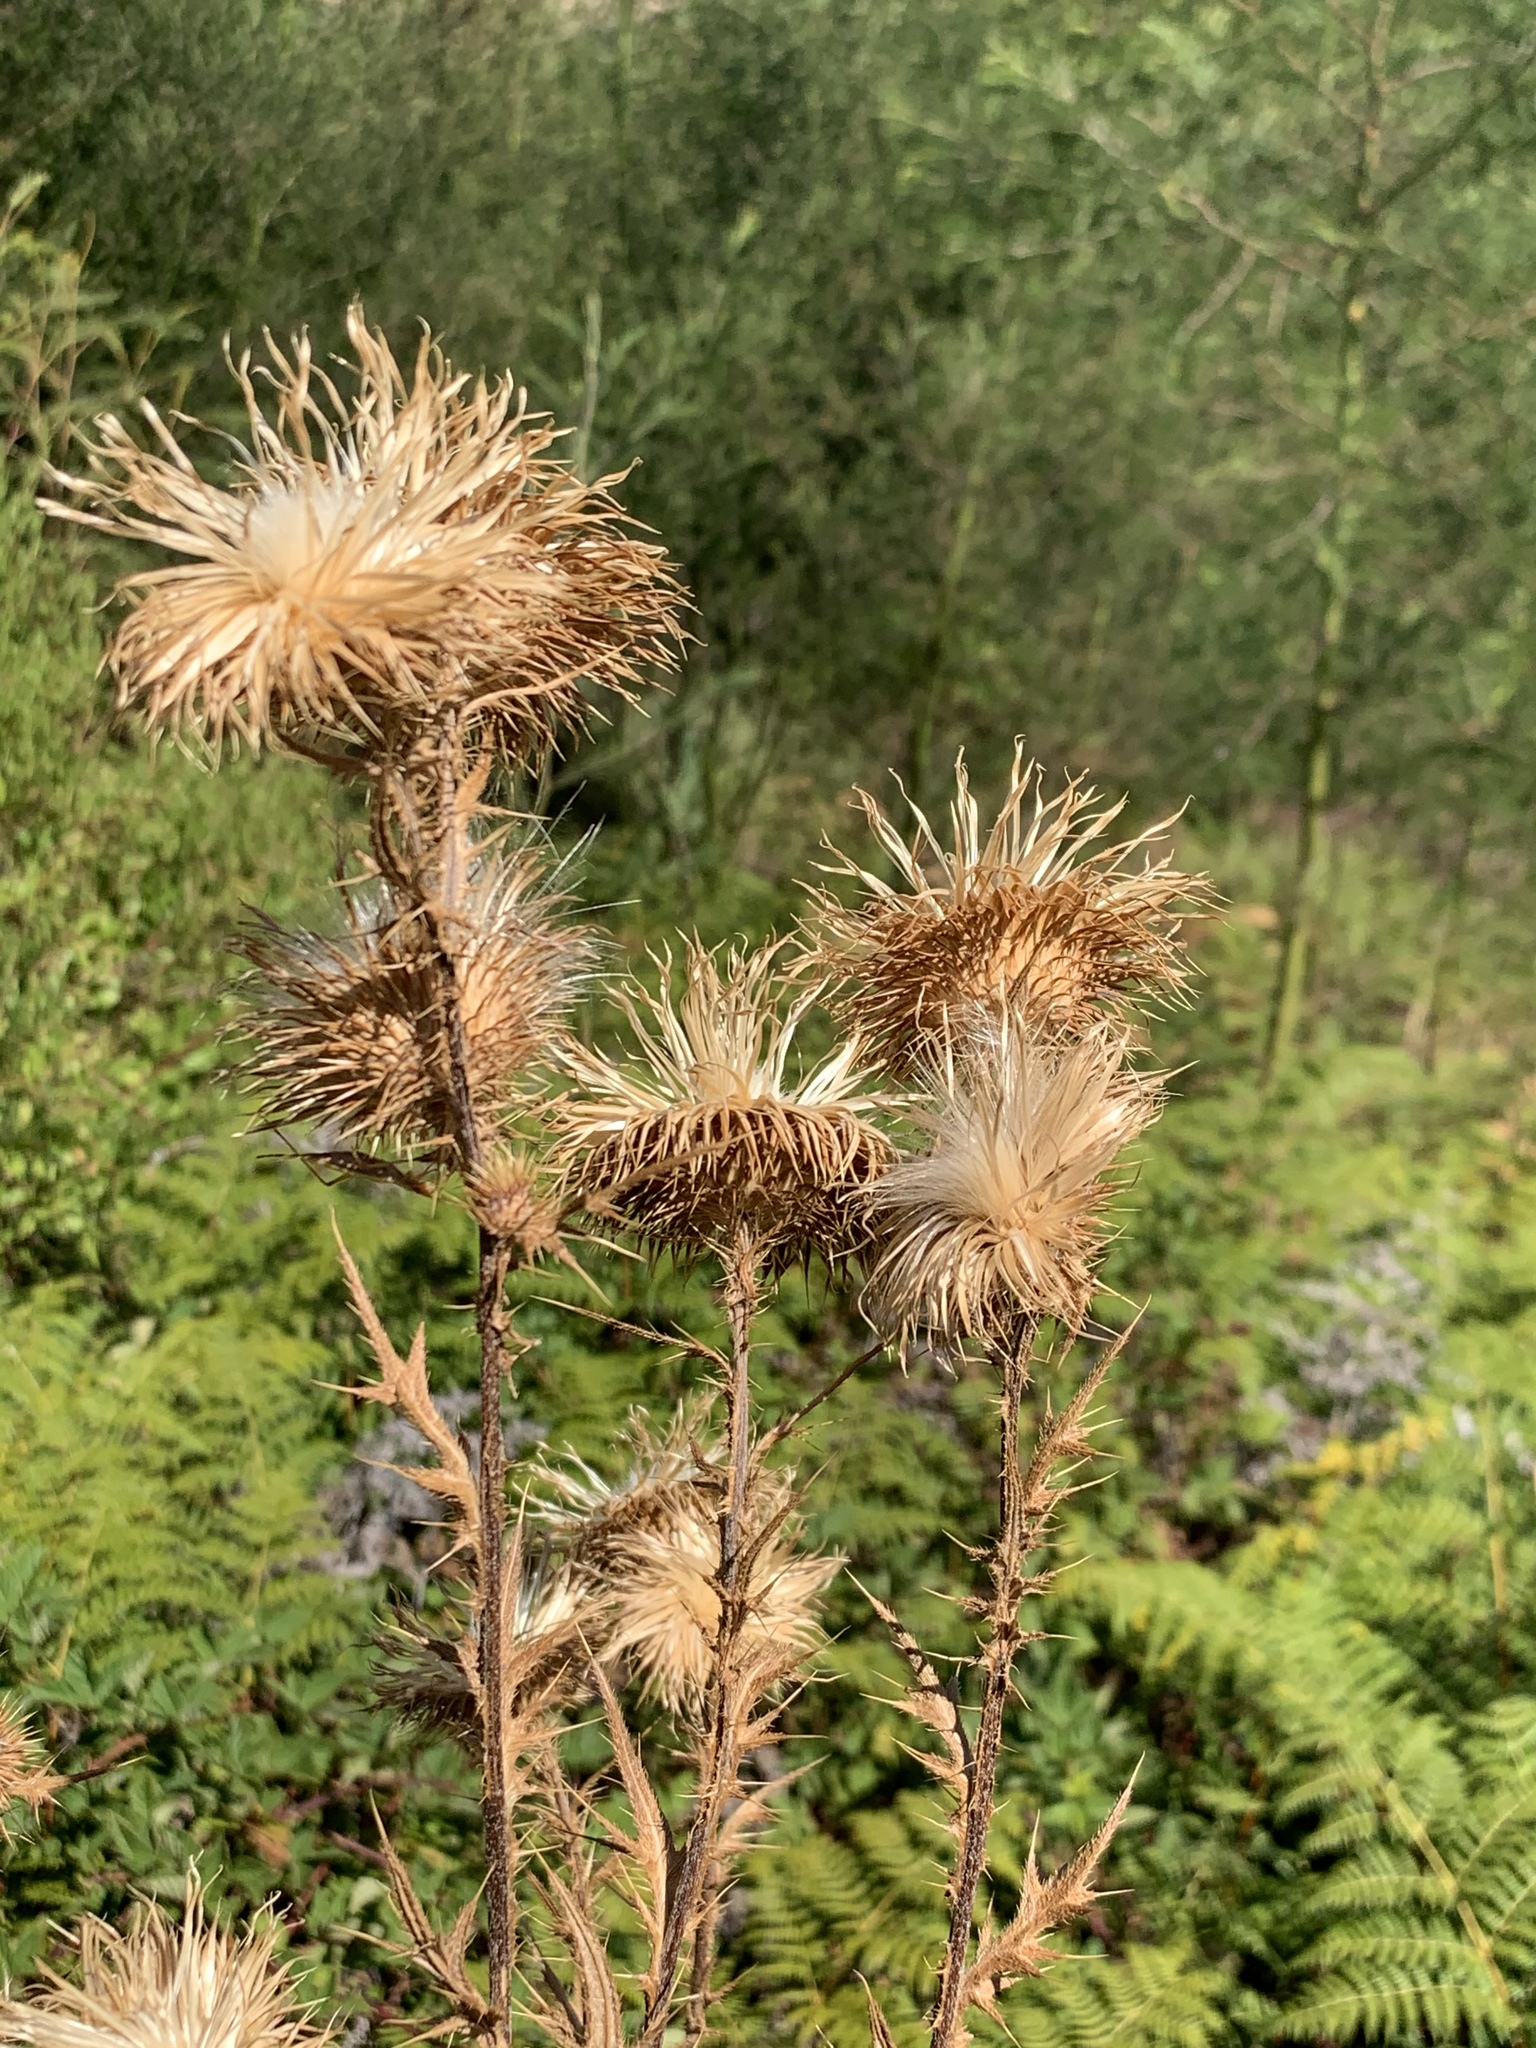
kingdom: Plantae
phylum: Tracheophyta
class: Magnoliopsida
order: Asterales
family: Asteraceae
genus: Cirsium
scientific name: Cirsium vulgare
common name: Bull thistle
